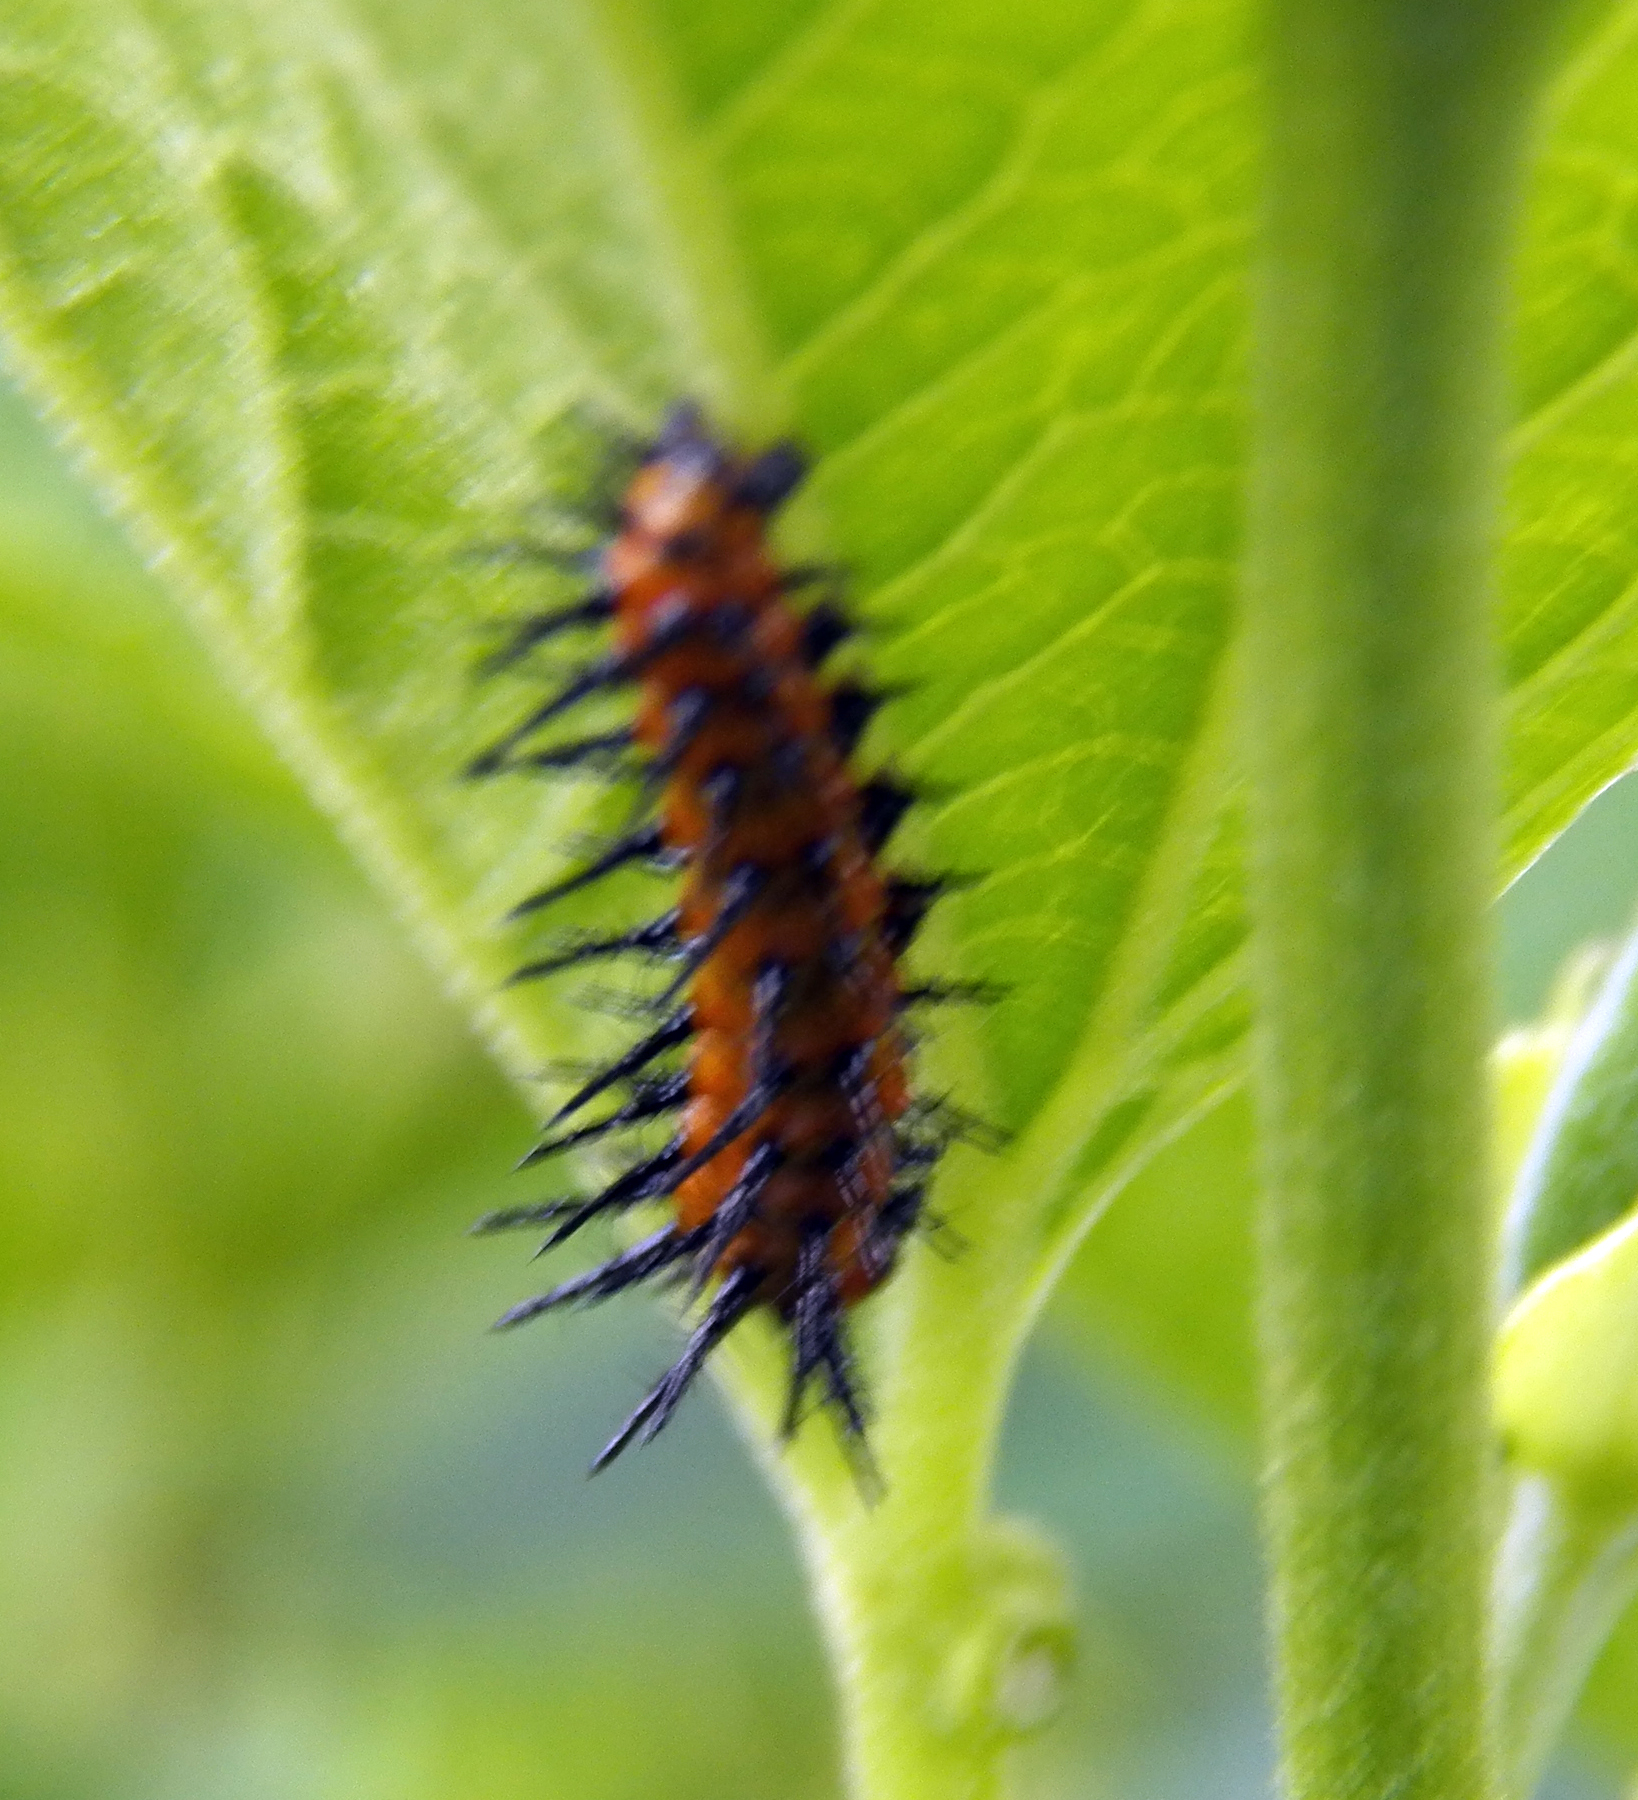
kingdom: Animalia
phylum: Arthropoda
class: Insecta
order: Lepidoptera
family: Nymphalidae
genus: Dione
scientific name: Dione vanillae
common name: Gulf fritillary
